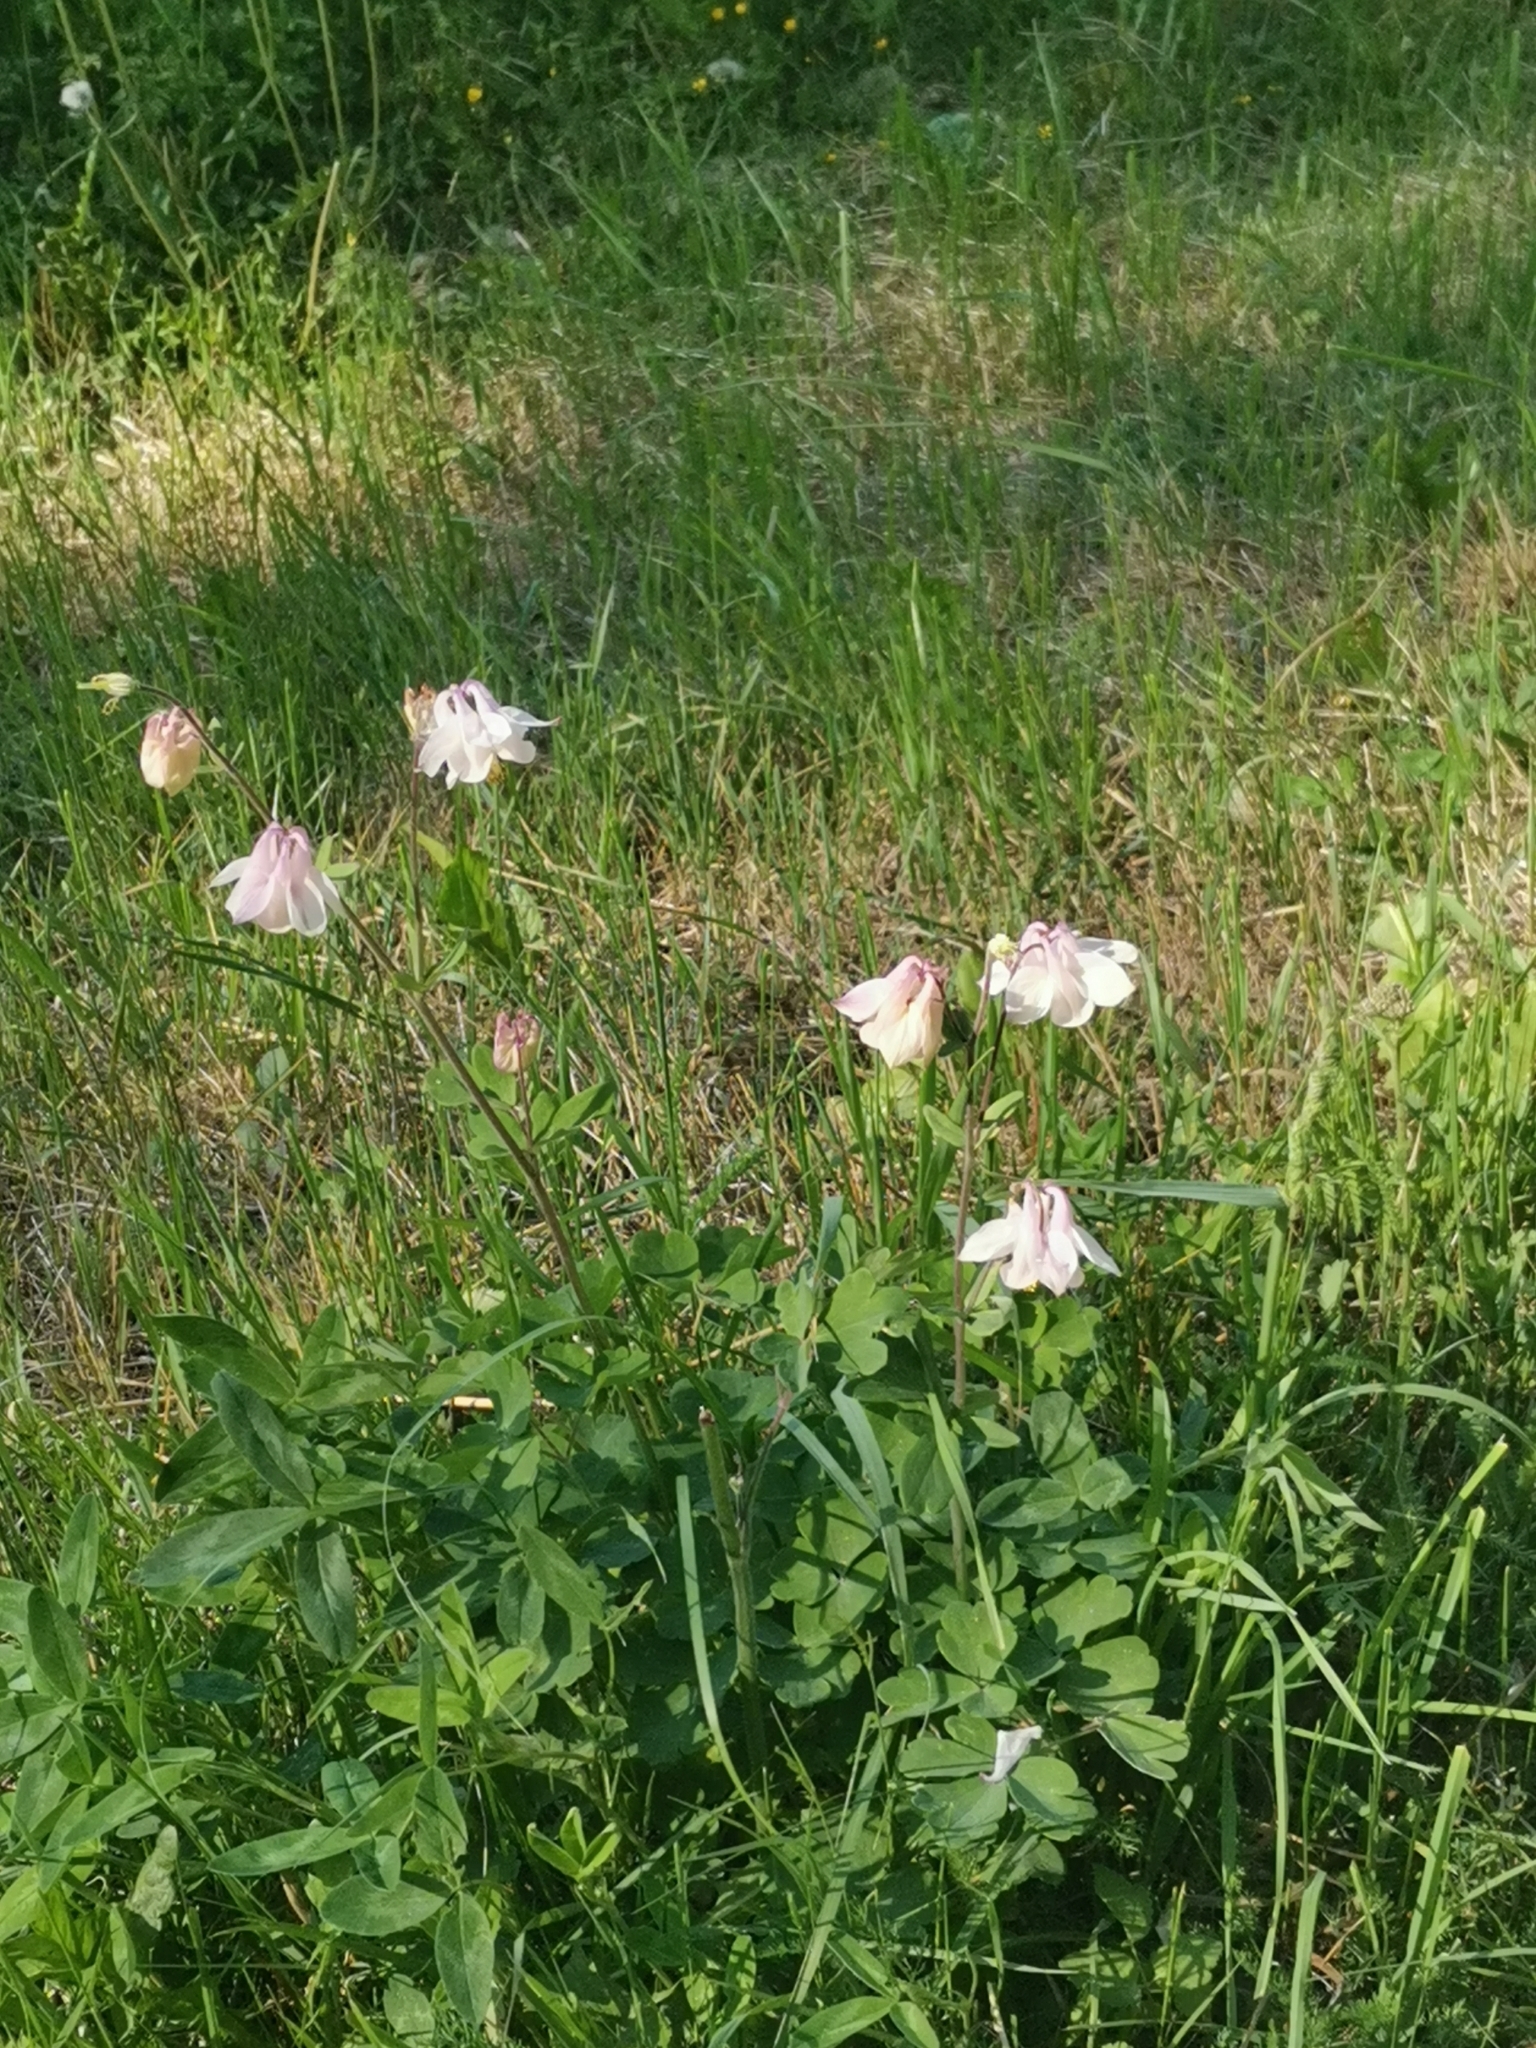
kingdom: Plantae
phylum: Tracheophyta
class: Magnoliopsida
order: Ranunculales
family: Ranunculaceae
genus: Aquilegia
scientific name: Aquilegia vulgaris
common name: Columbine
